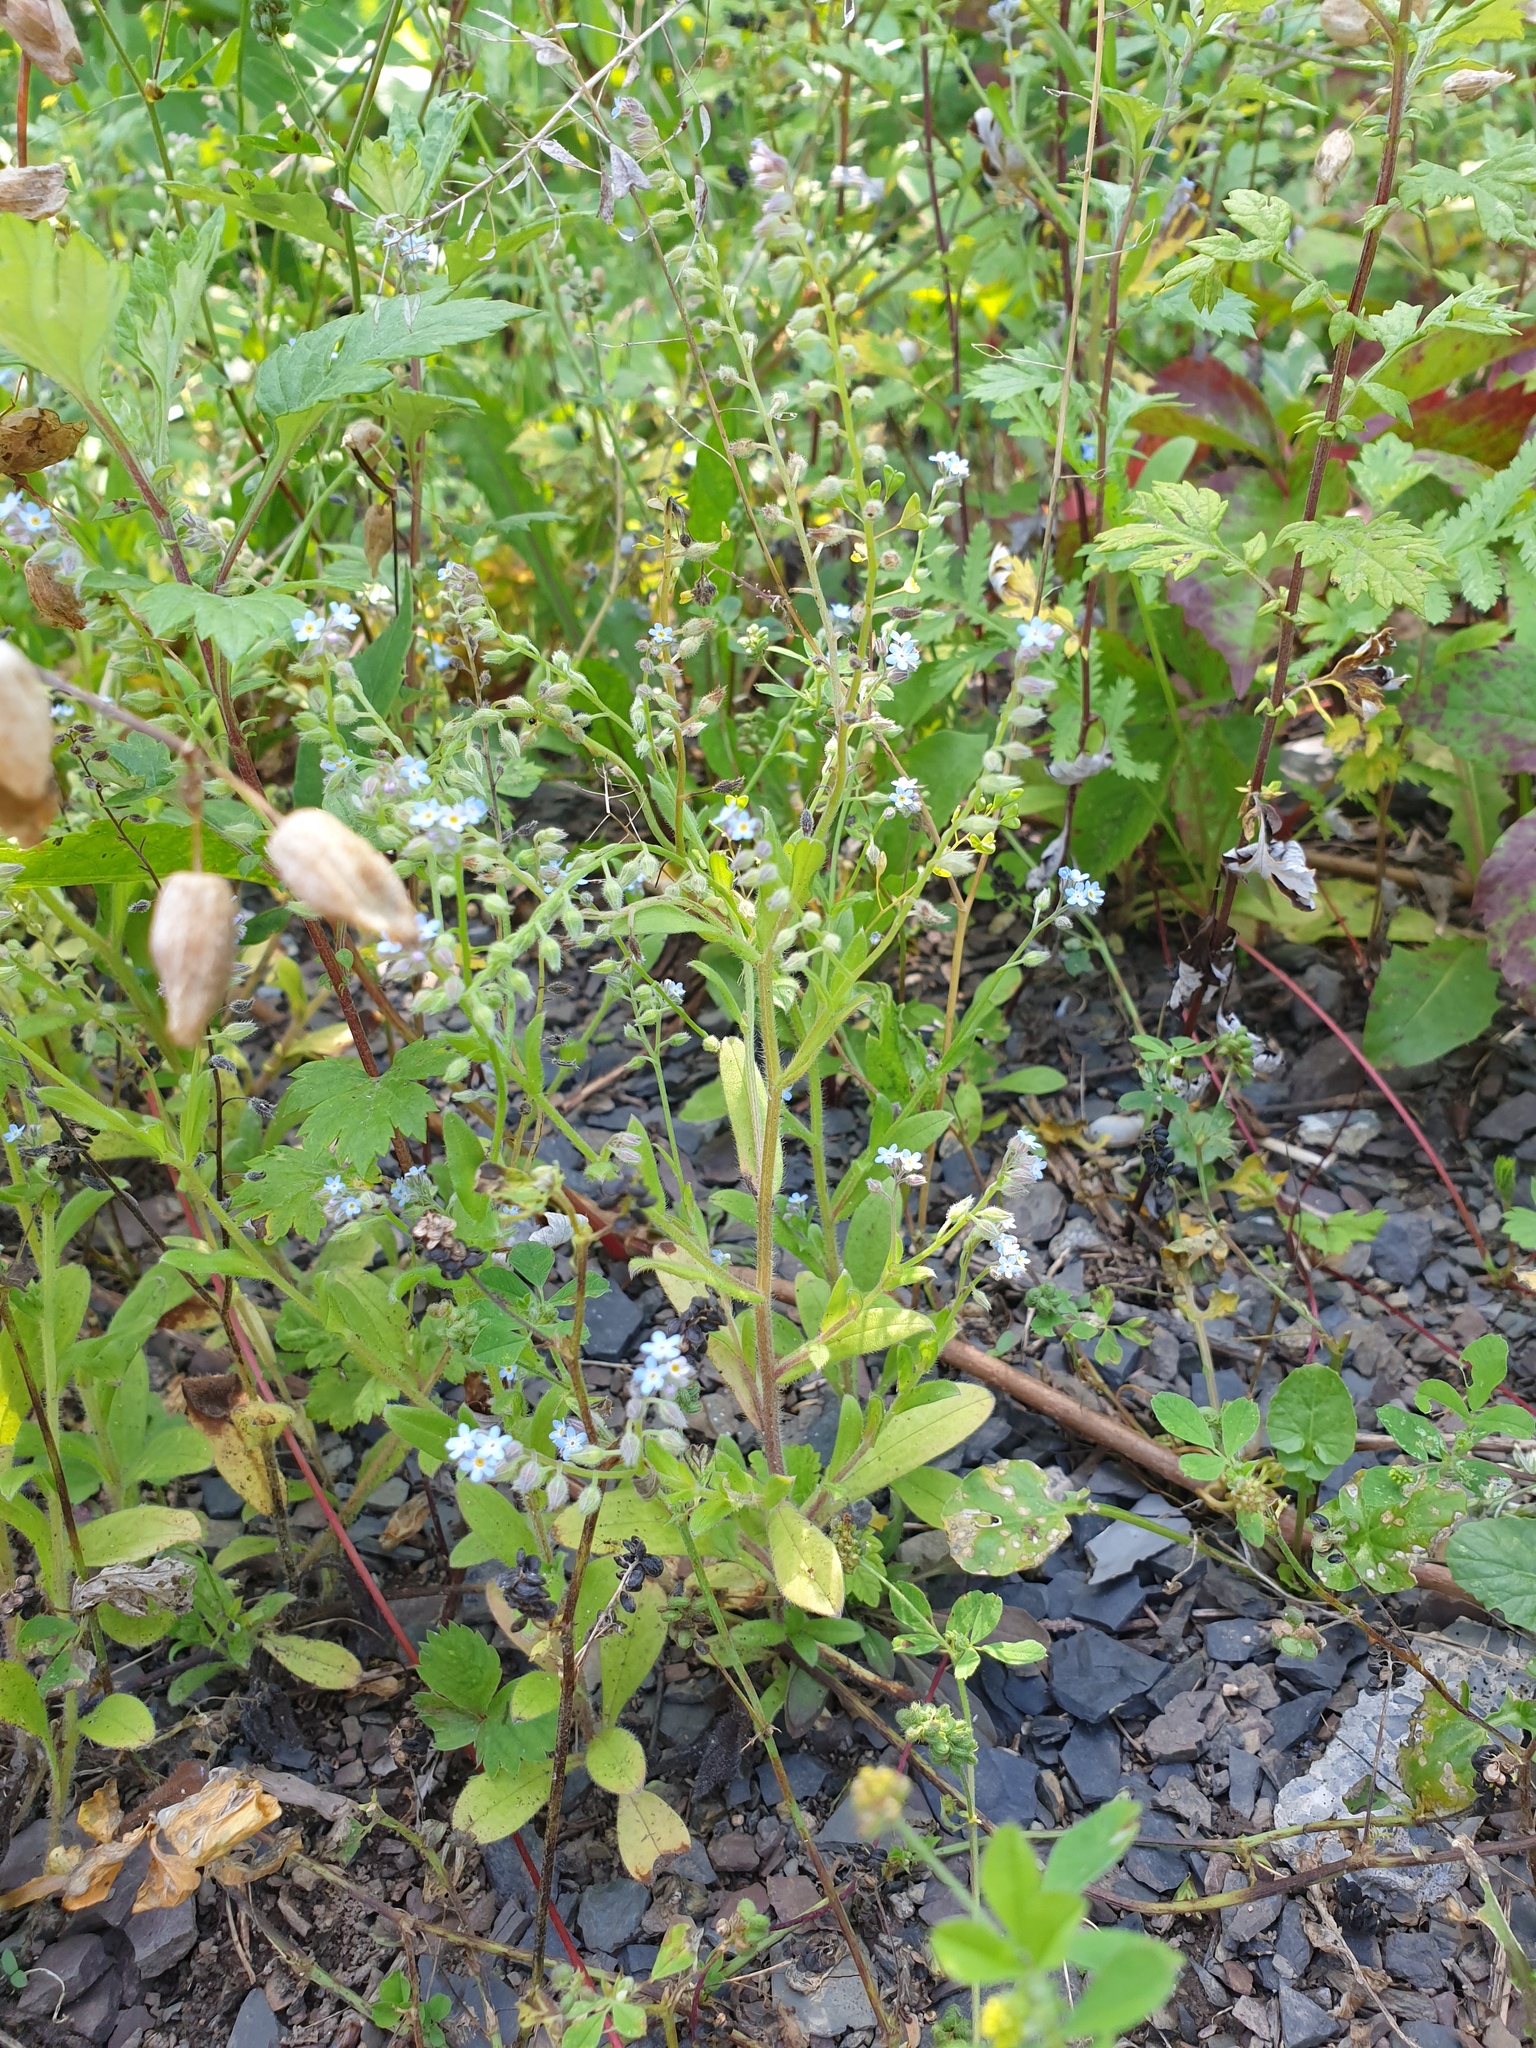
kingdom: Plantae
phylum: Tracheophyta
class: Magnoliopsida
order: Boraginales
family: Boraginaceae
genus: Myosotis
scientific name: Myosotis arvensis
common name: Field forget-me-not
